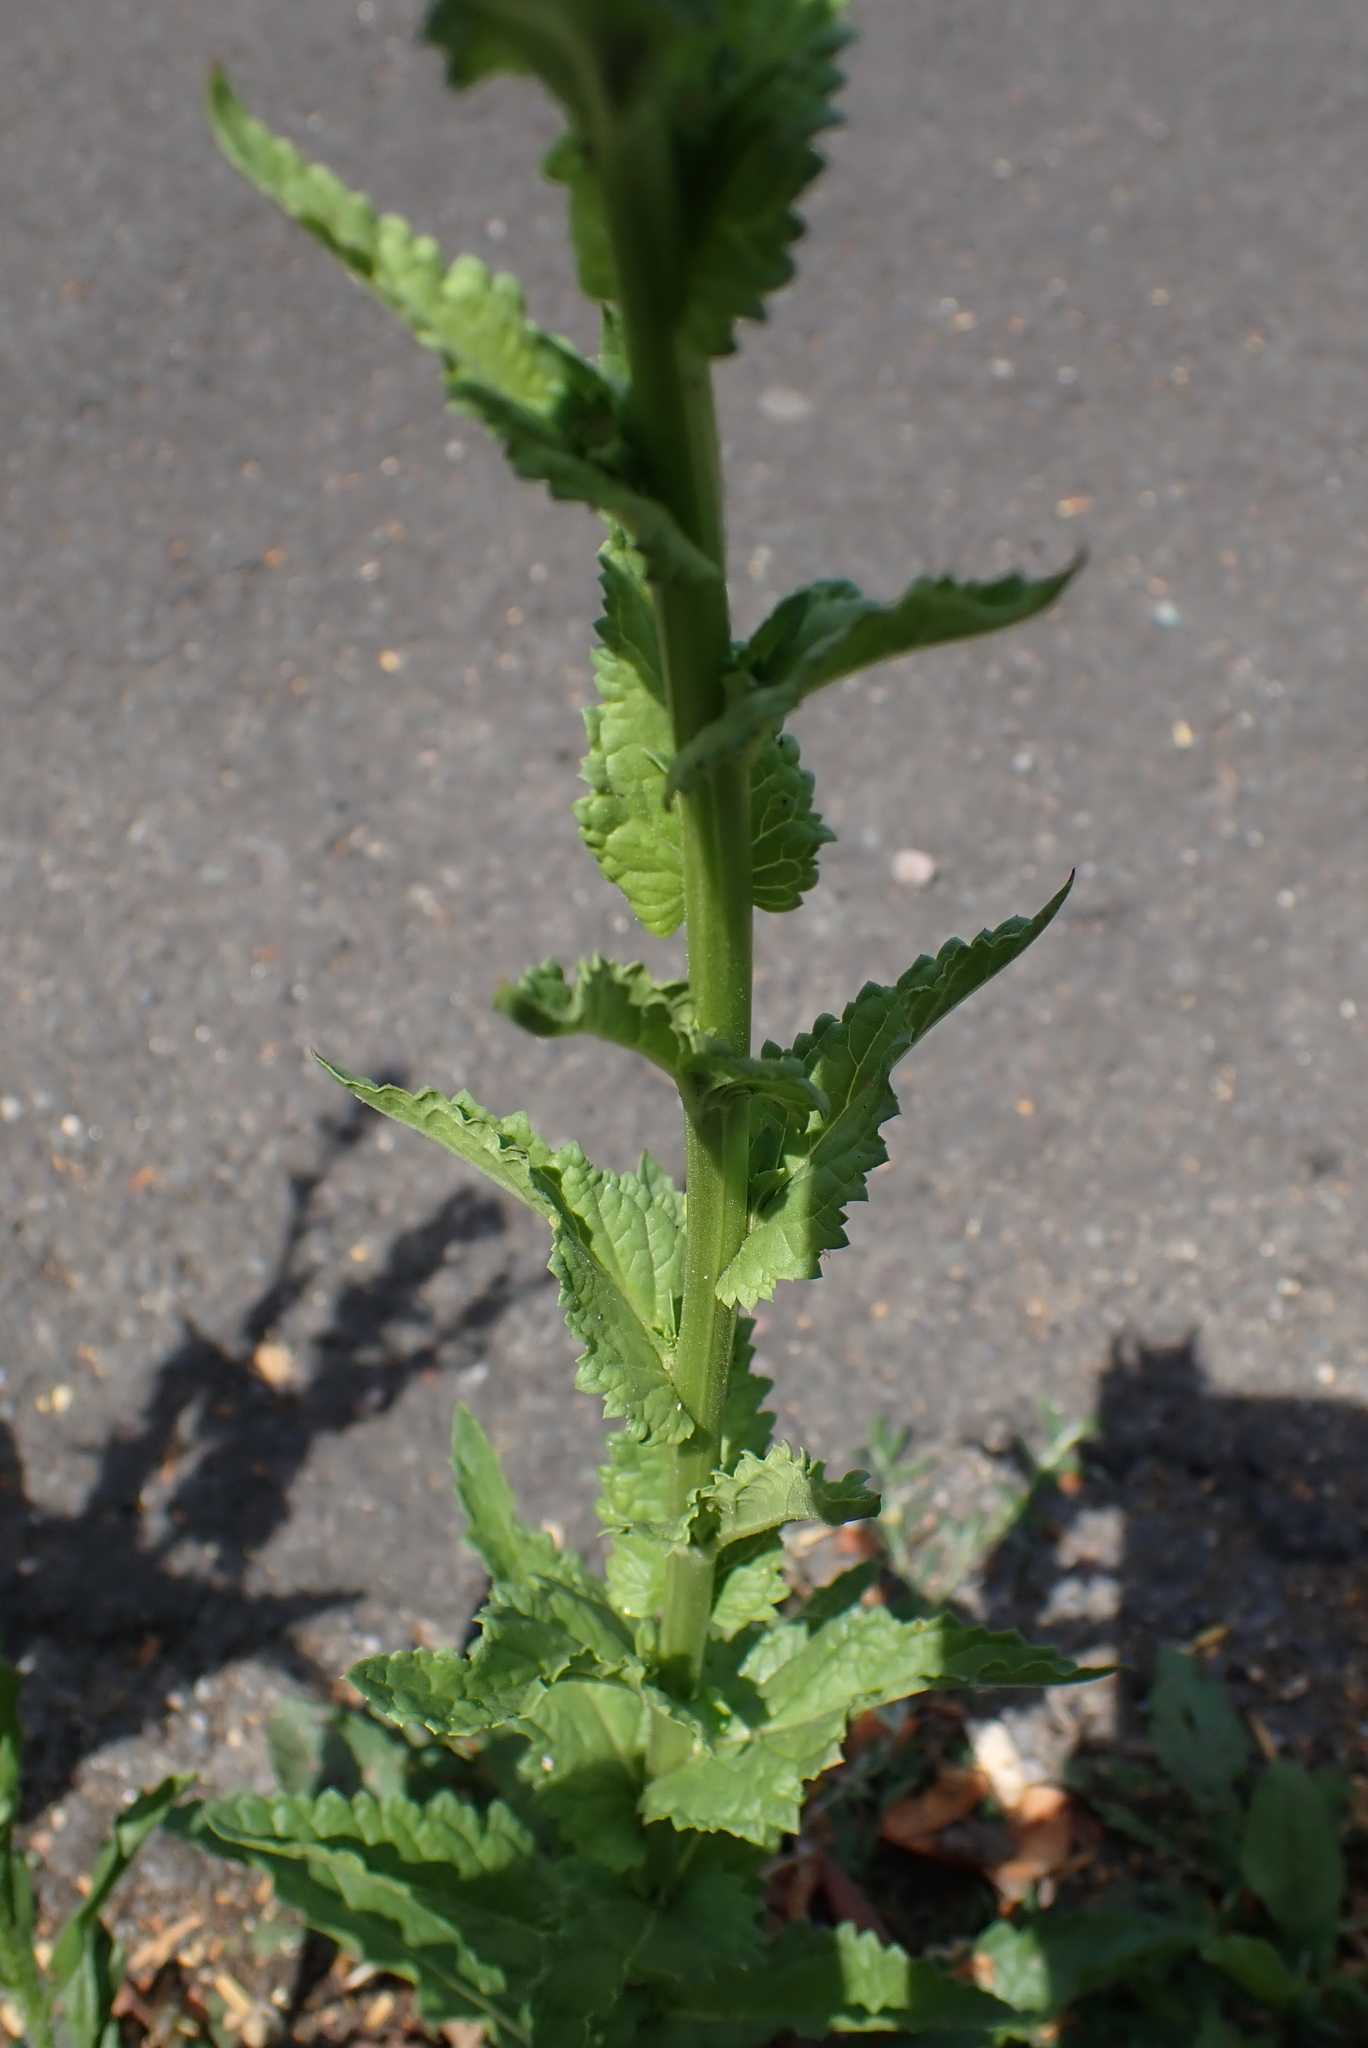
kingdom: Plantae
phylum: Tracheophyta
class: Magnoliopsida
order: Lamiales
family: Scrophulariaceae
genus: Verbascum
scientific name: Verbascum blattaria
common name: Moth mullein
